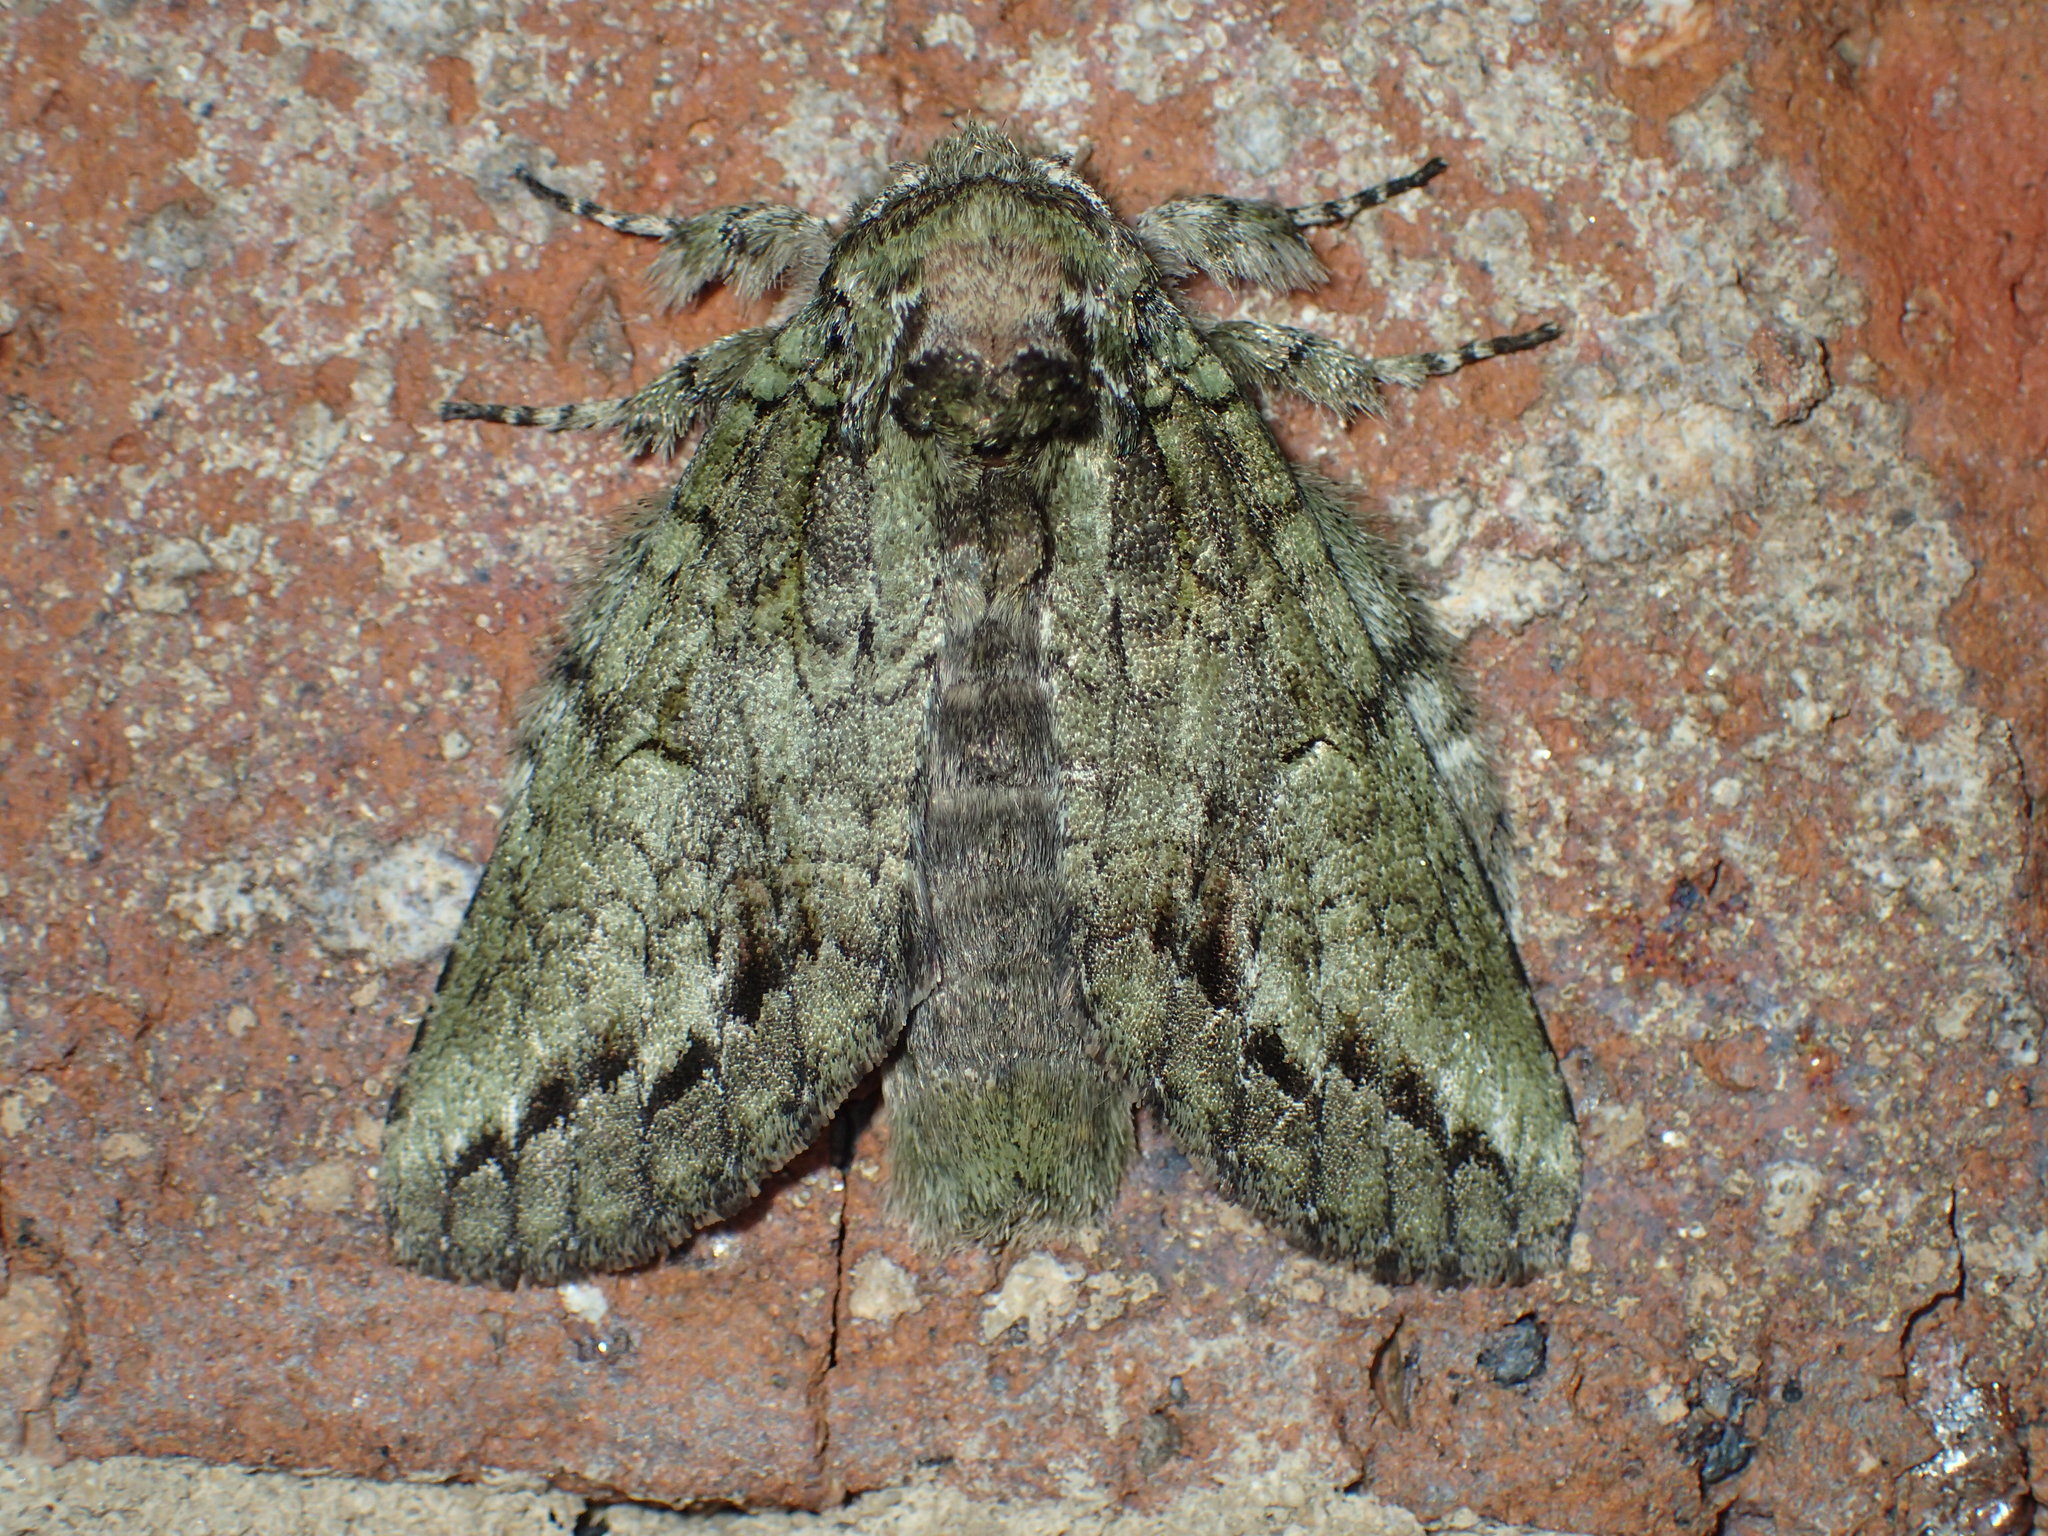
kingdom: Animalia
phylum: Arthropoda
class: Insecta
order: Lepidoptera
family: Notodontidae
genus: Heterocampa
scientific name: Heterocampa
